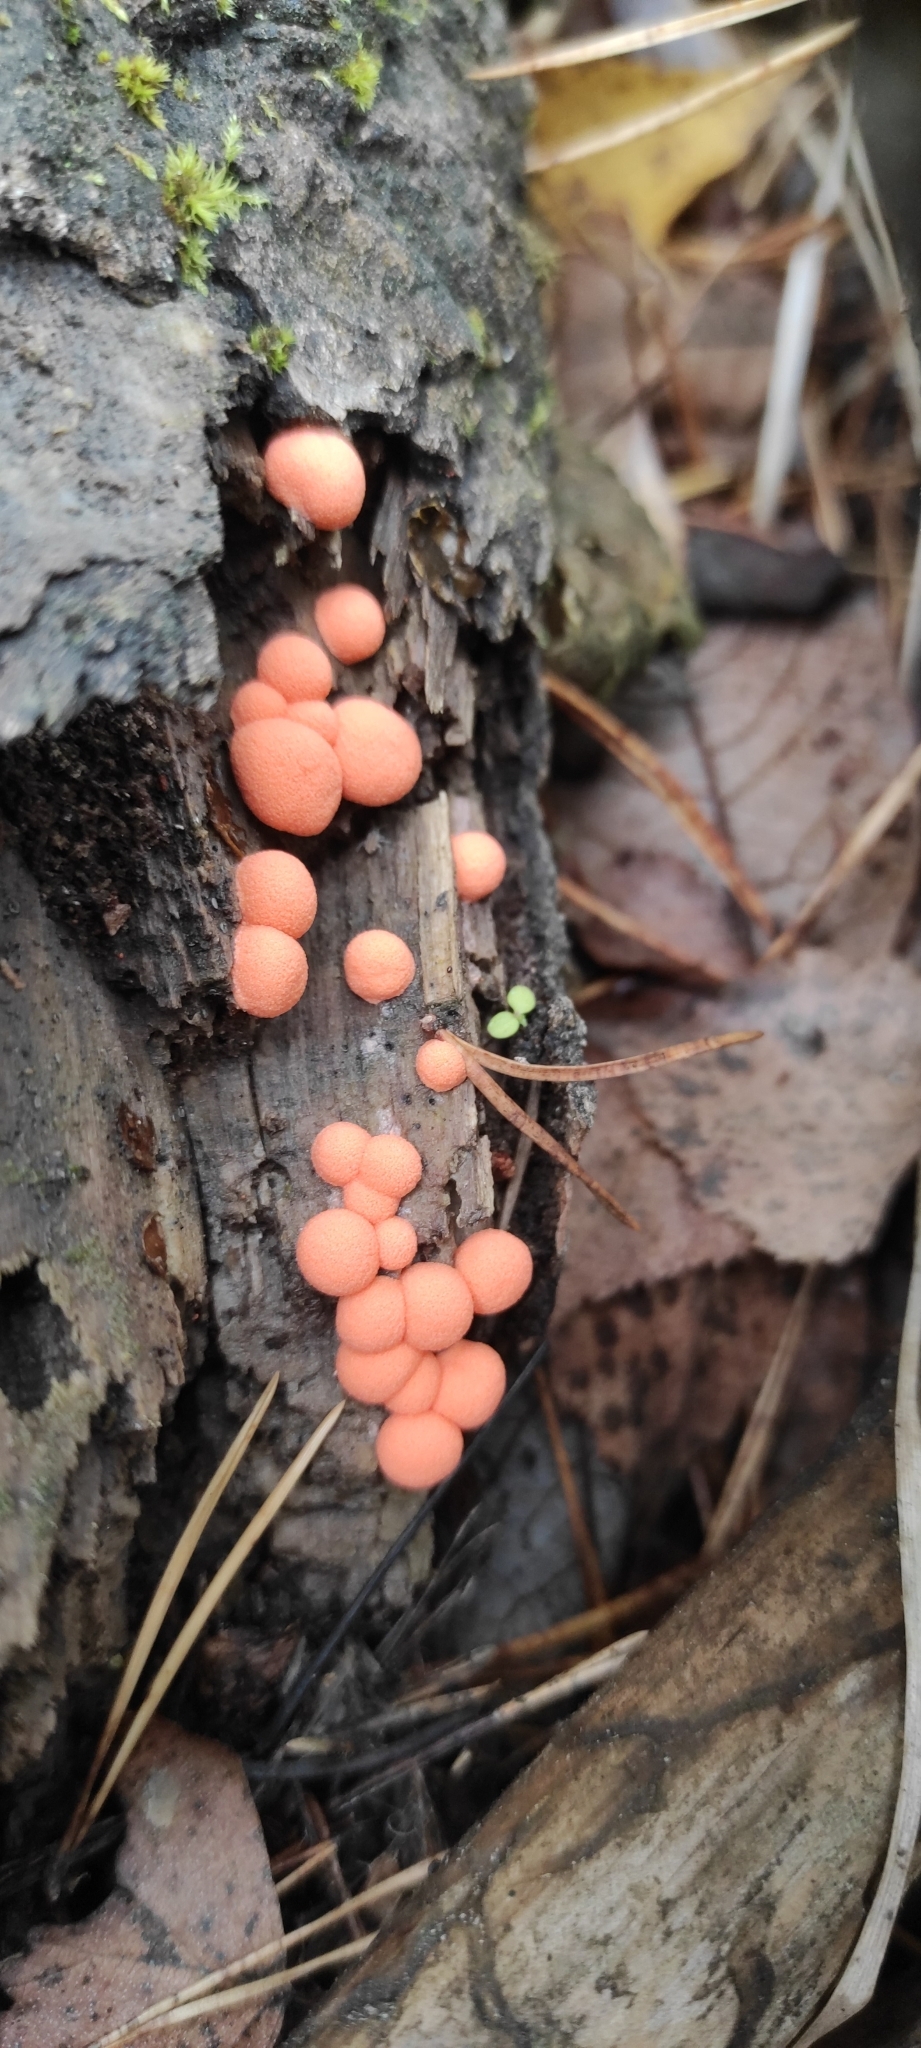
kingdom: Protozoa
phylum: Mycetozoa
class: Myxomycetes
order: Cribrariales
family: Tubiferaceae
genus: Lycogala
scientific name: Lycogala epidendrum
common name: Wolf's milk
